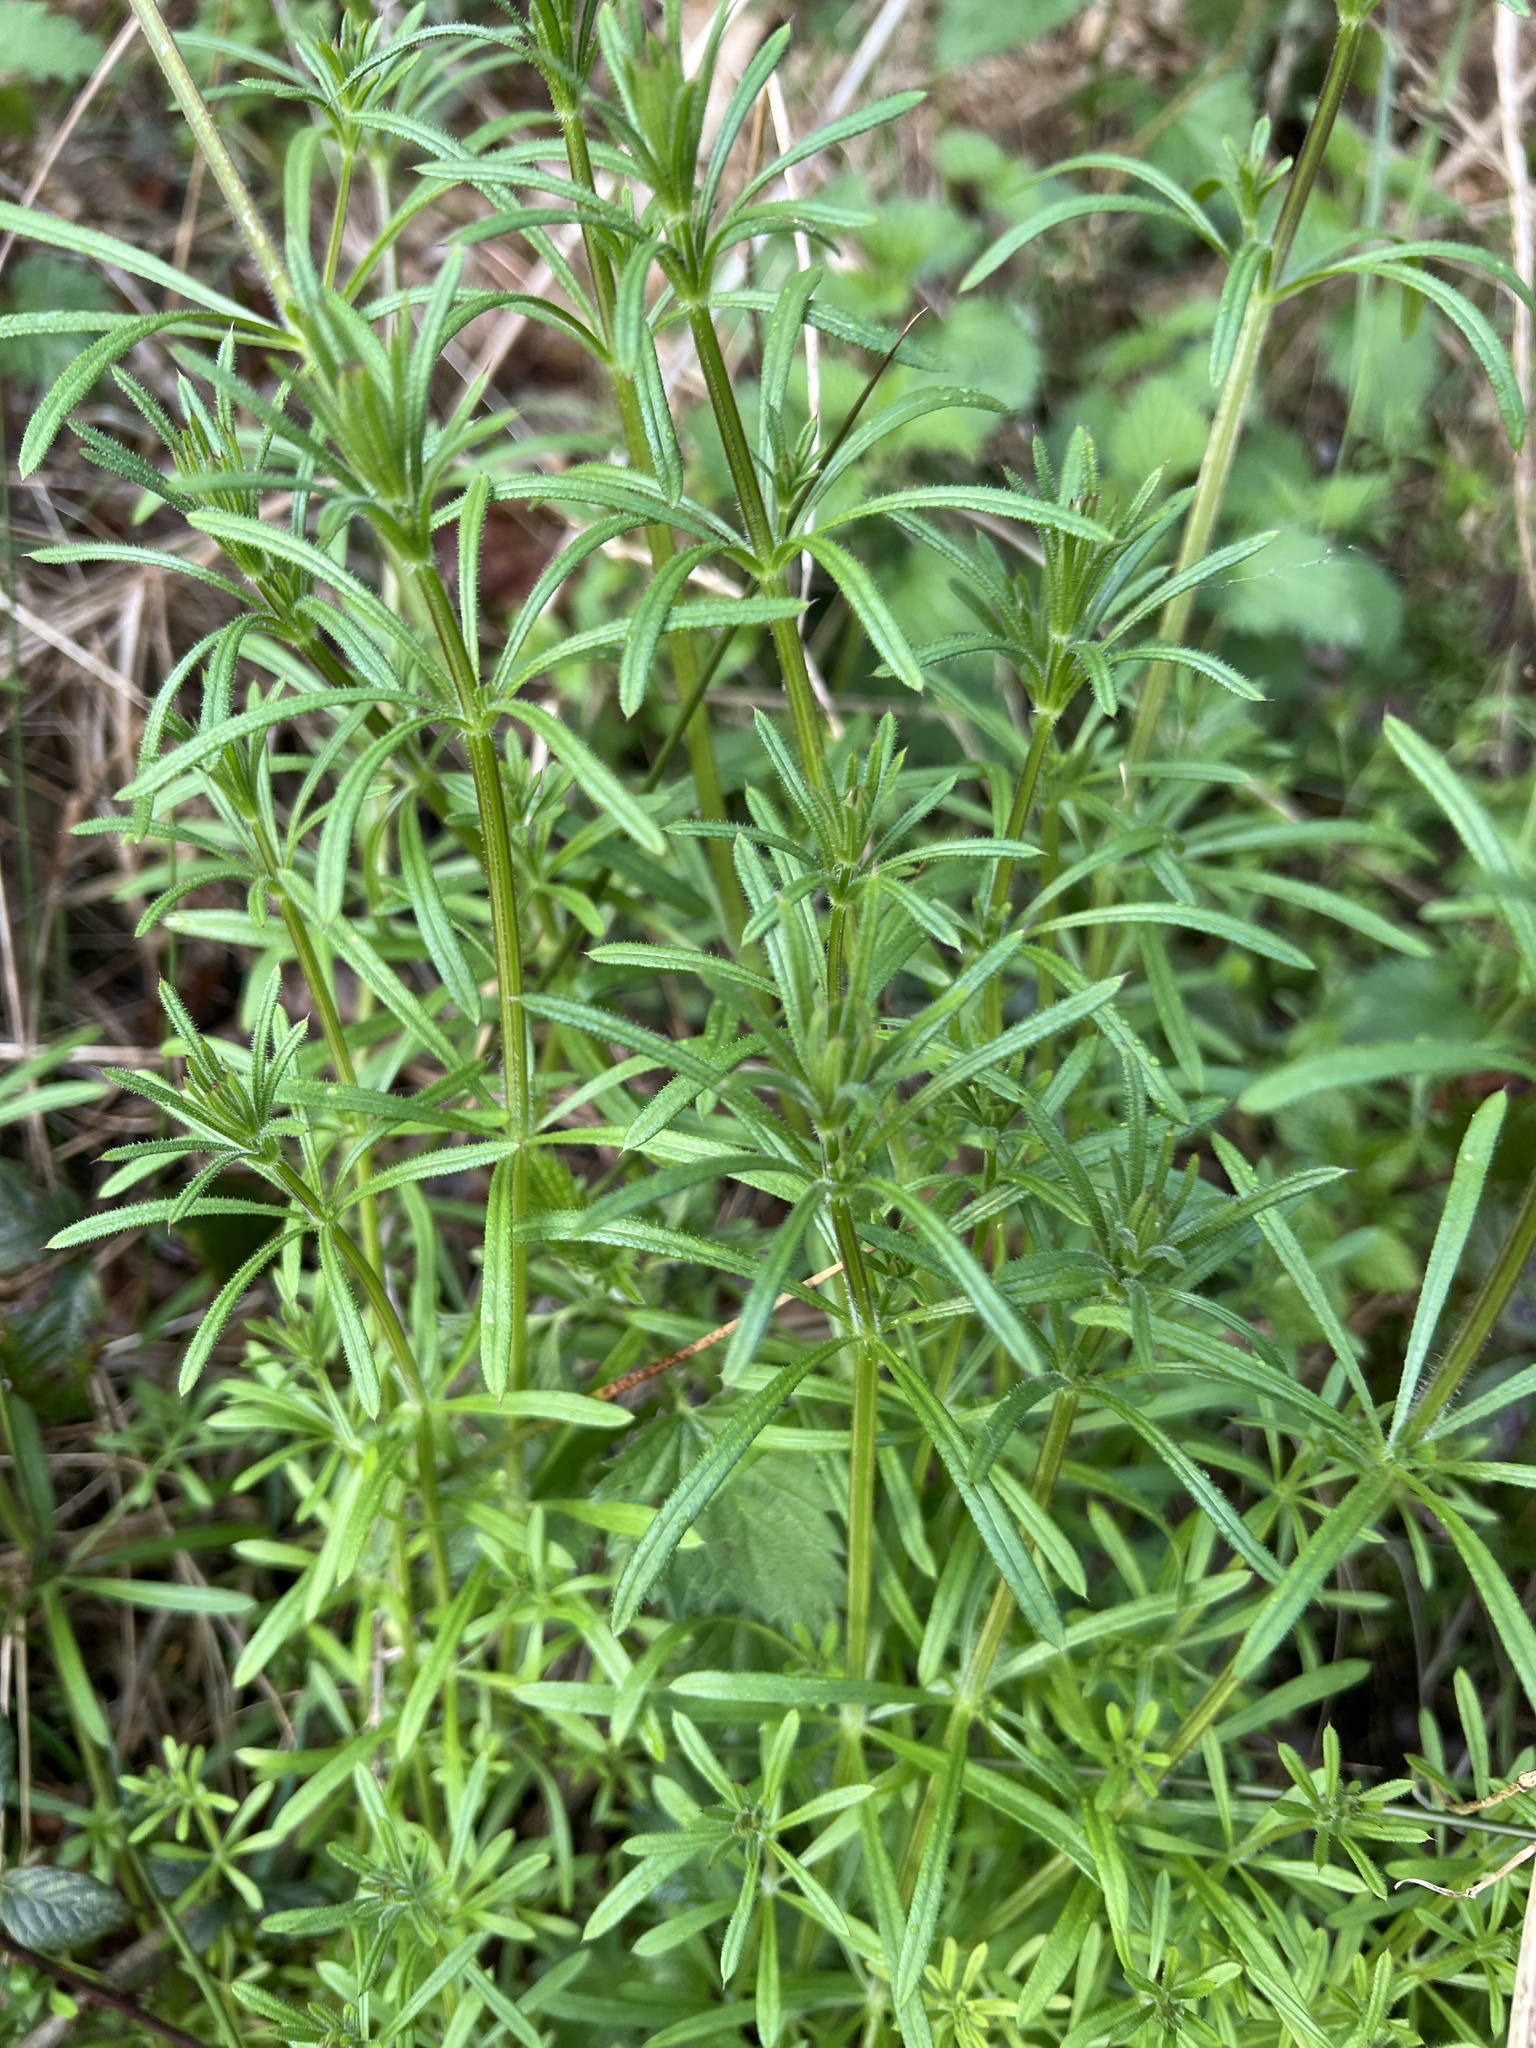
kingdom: Plantae
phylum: Tracheophyta
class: Magnoliopsida
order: Gentianales
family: Rubiaceae
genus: Galium
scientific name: Galium aparine
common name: Cleavers
